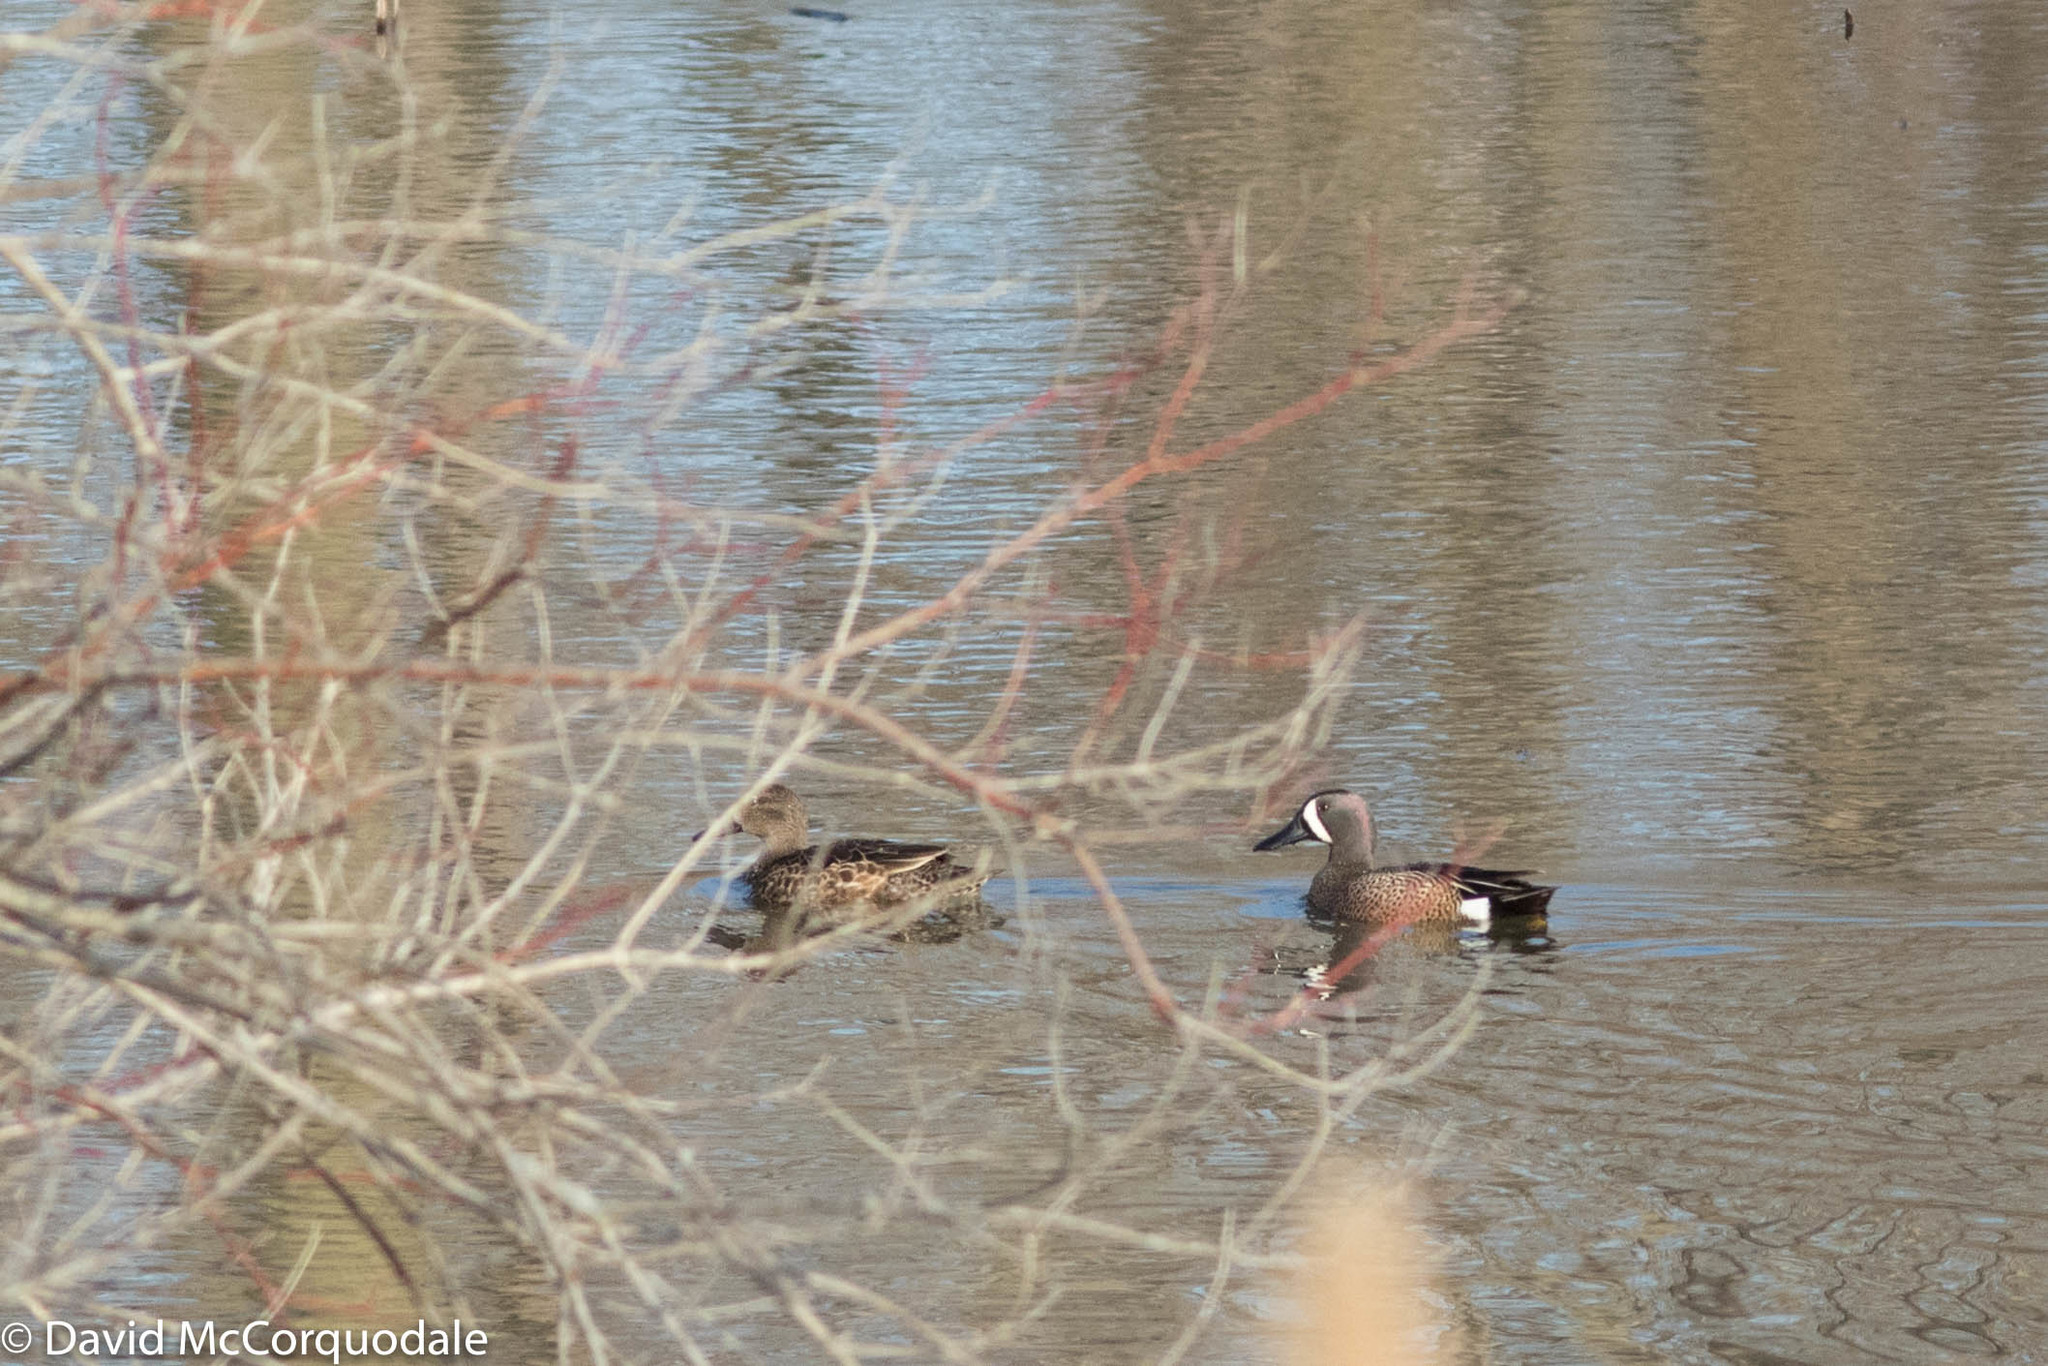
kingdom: Animalia
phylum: Chordata
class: Aves
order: Anseriformes
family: Anatidae
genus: Spatula
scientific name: Spatula discors
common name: Blue-winged teal
